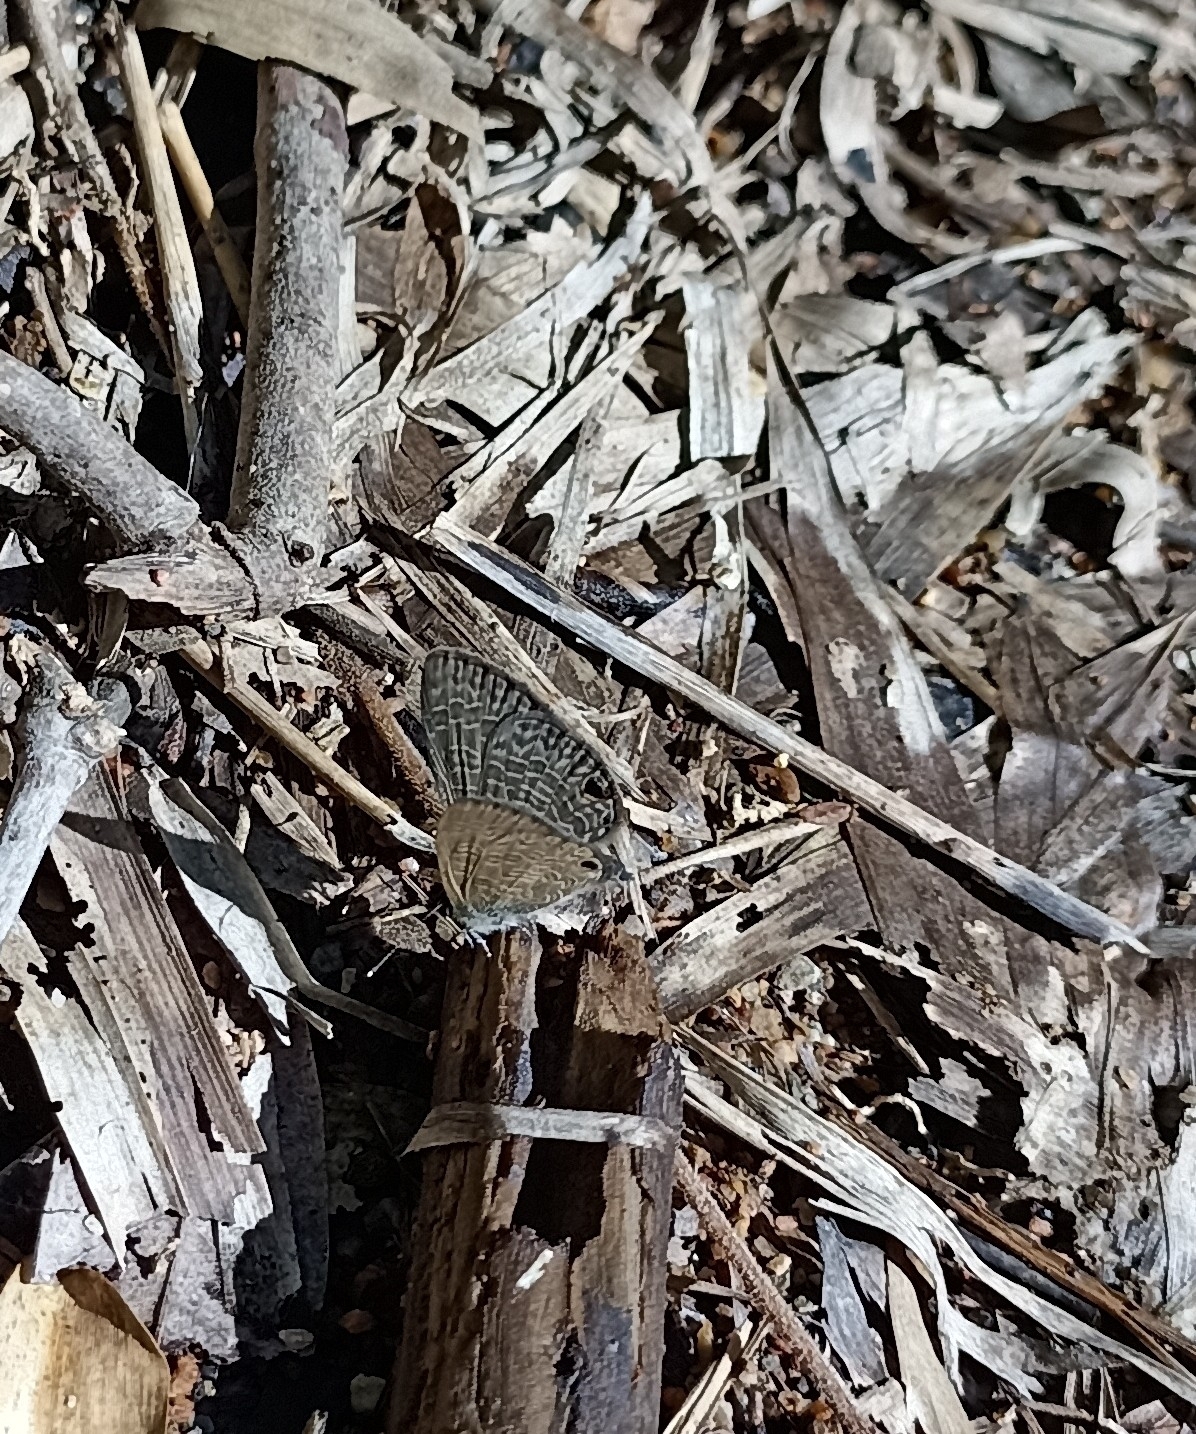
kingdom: Animalia
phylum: Arthropoda
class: Insecta
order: Lepidoptera
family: Lycaenidae
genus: Prosotas
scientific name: Prosotas dubiosa
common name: Tailless lineblue
